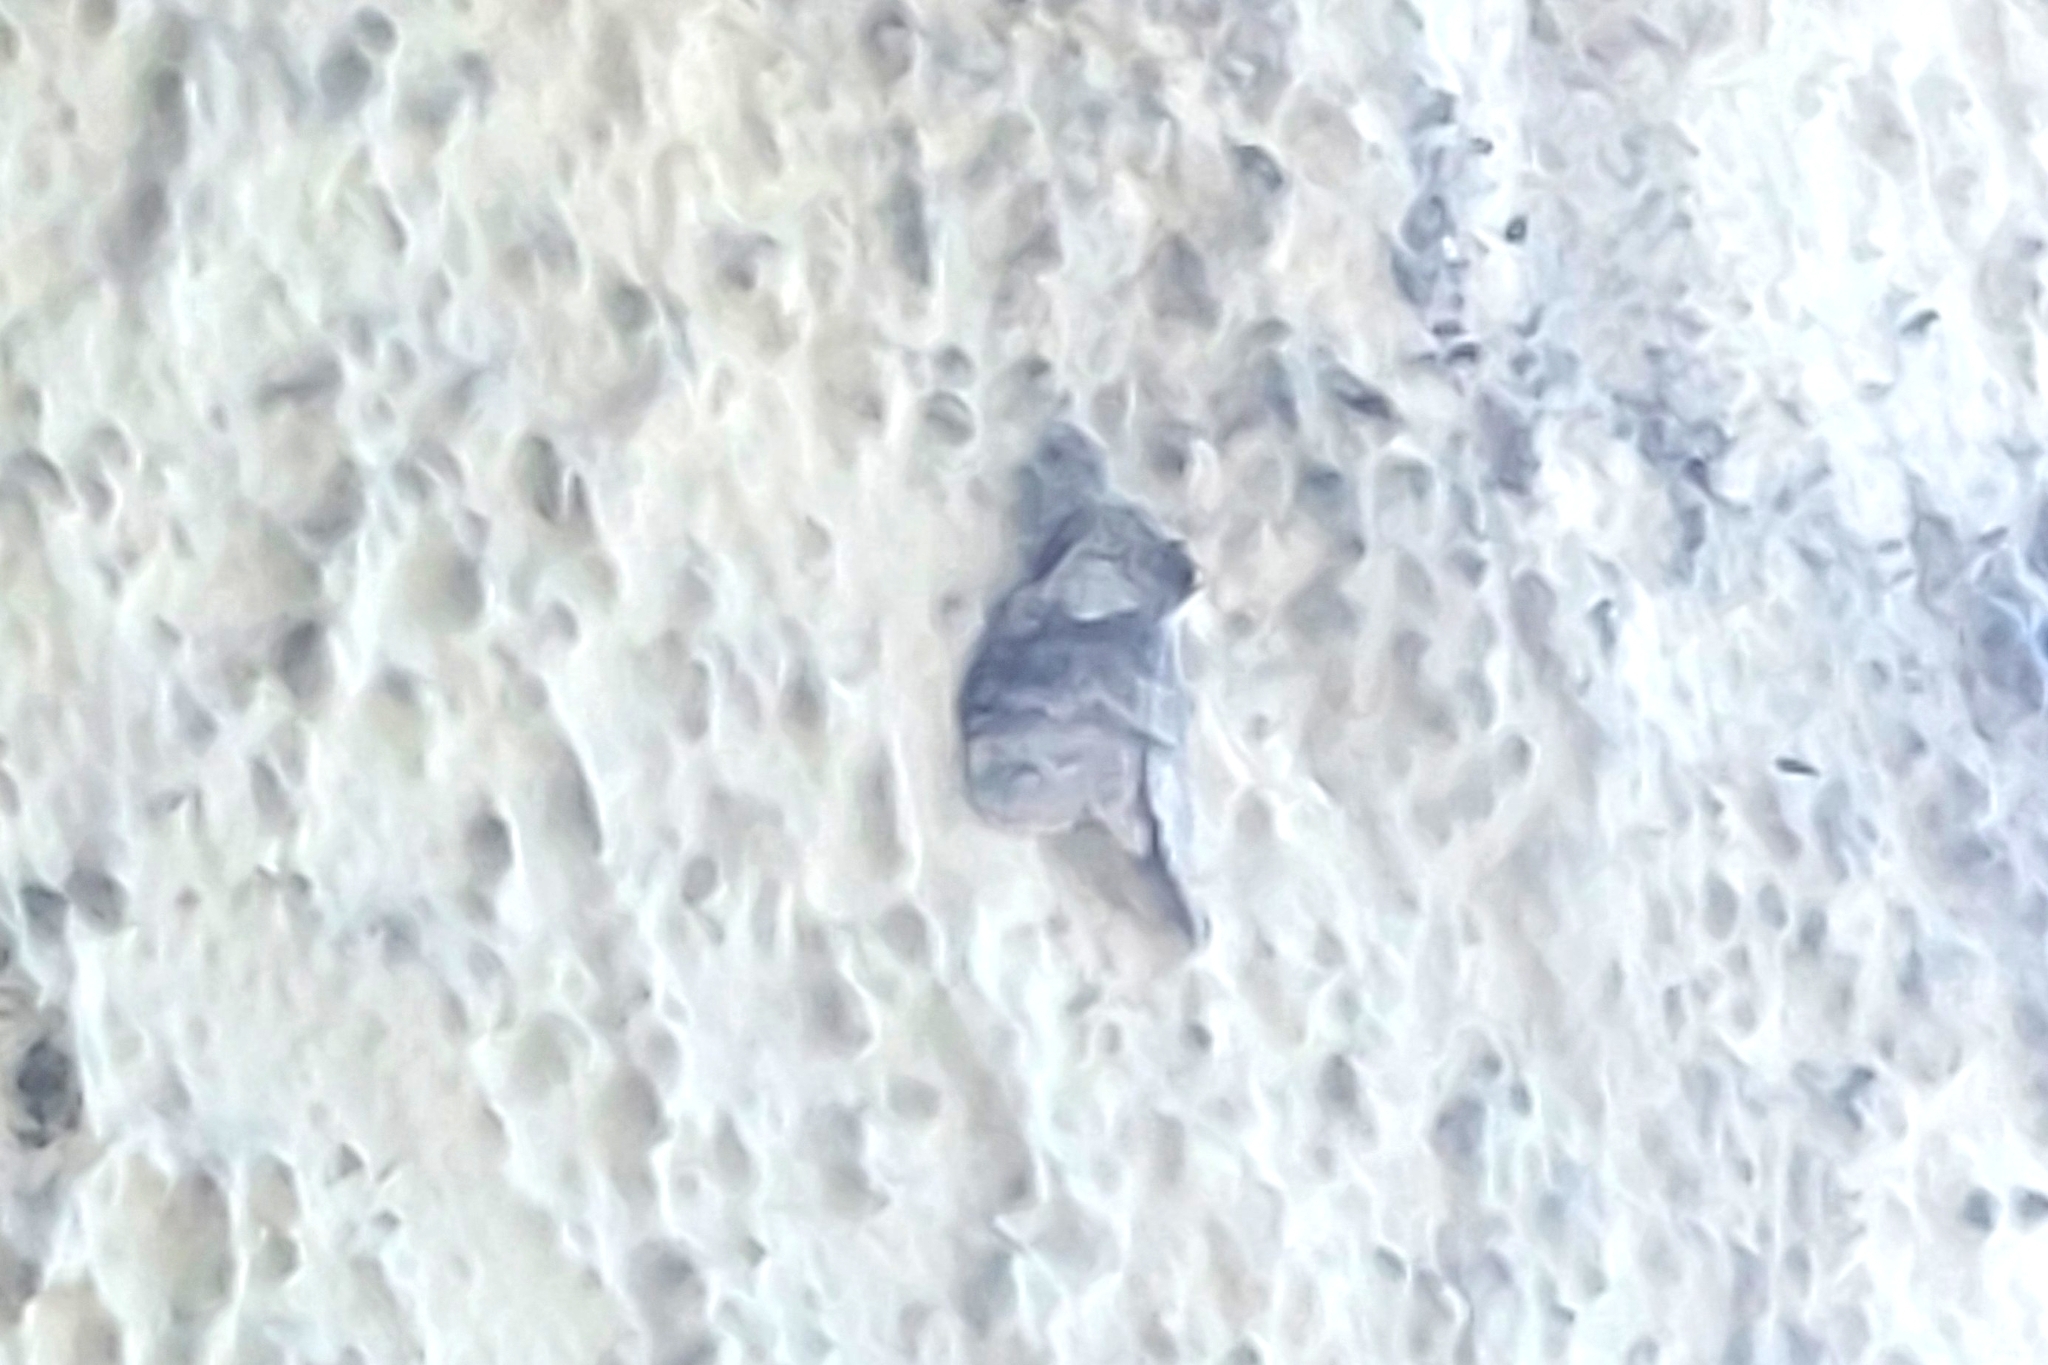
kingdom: Animalia
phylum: Arthropoda
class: Insecta
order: Lepidoptera
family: Erebidae
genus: Calliteara
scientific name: Calliteara pudibunda
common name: Pale tussock
